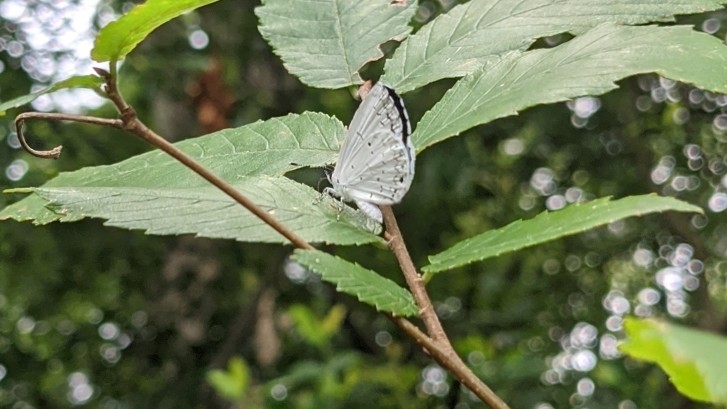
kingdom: Animalia
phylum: Arthropoda
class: Insecta
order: Lepidoptera
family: Lycaenidae
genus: Cyaniris
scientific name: Cyaniris neglecta
